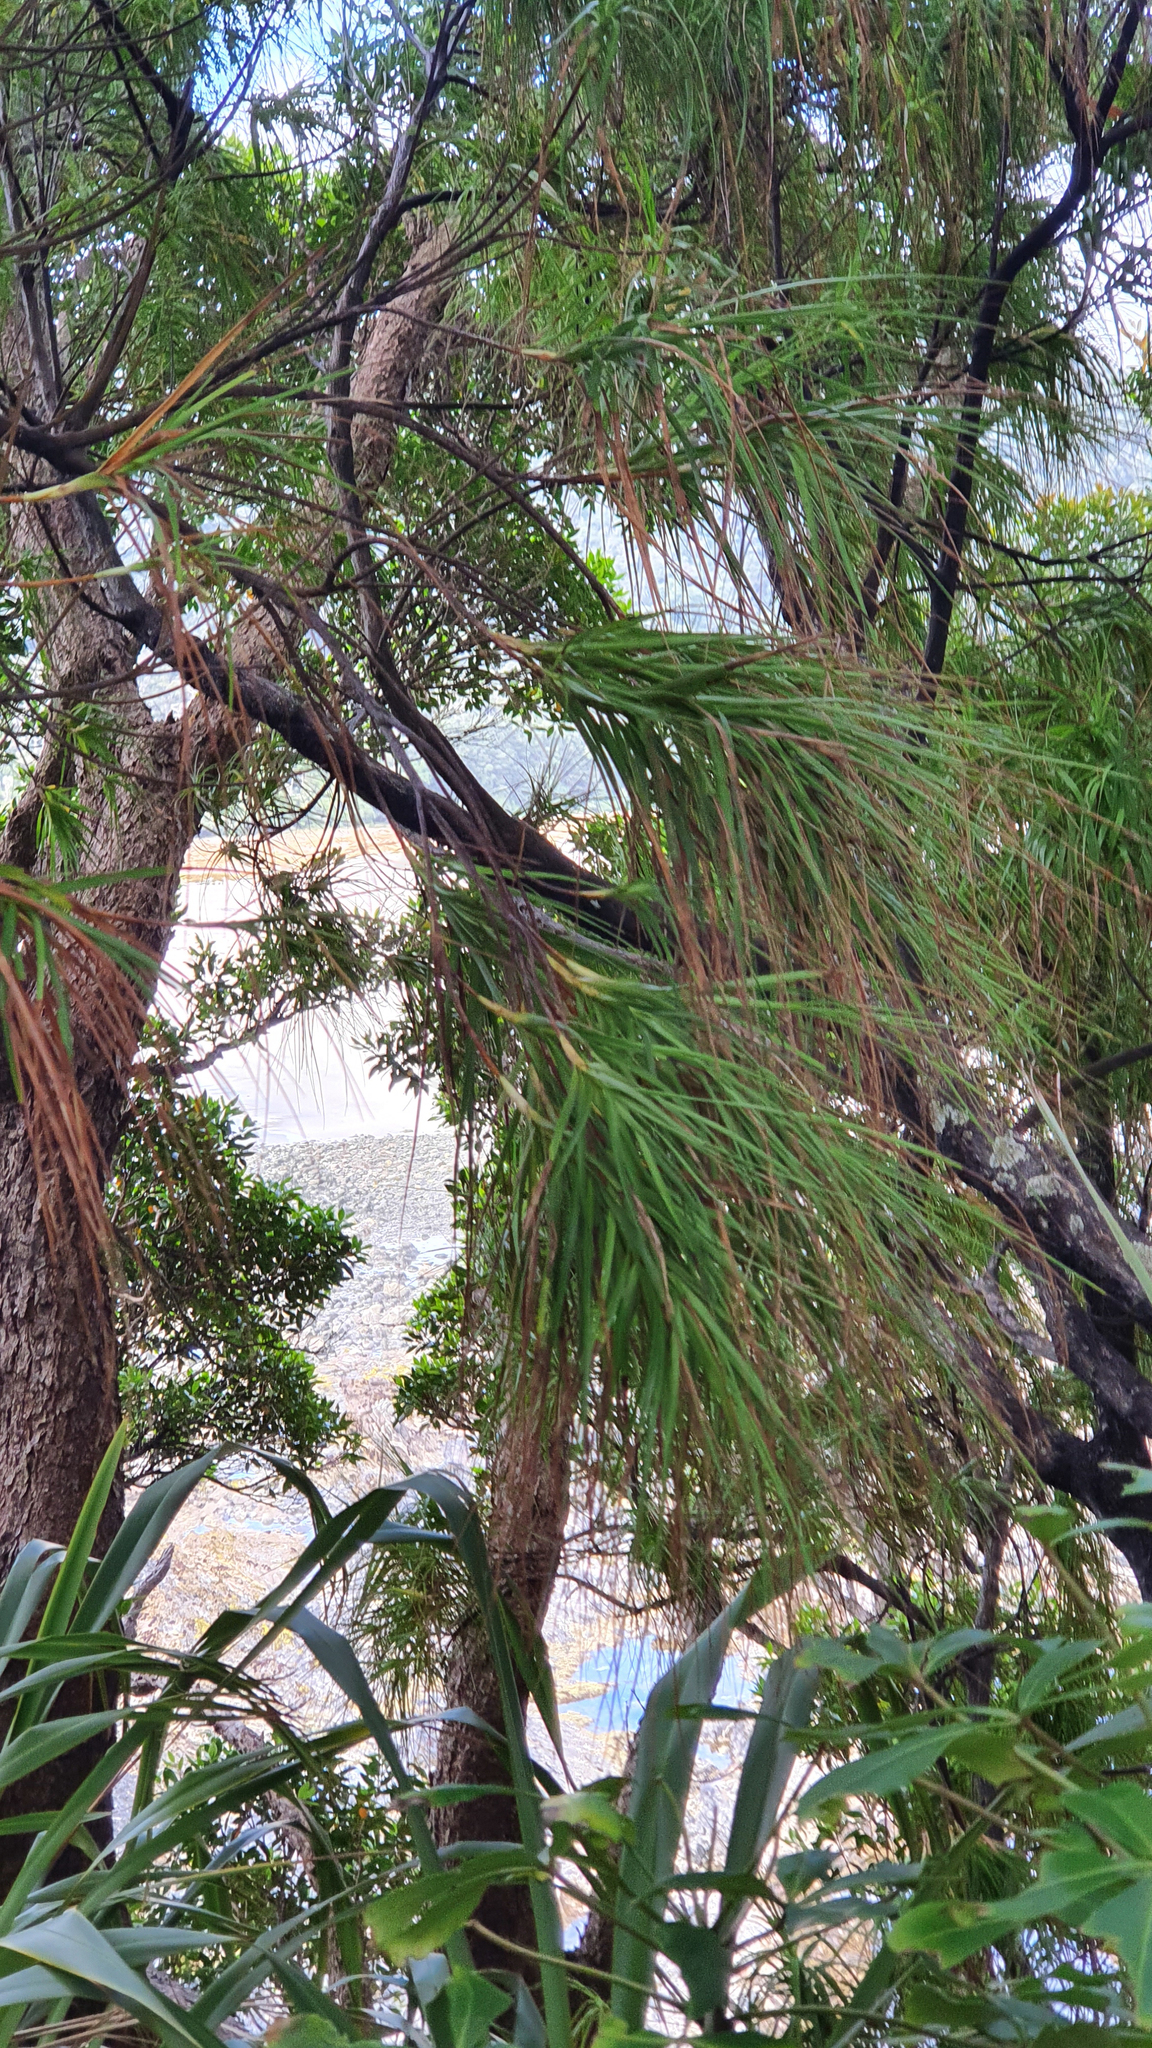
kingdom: Plantae
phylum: Tracheophyta
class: Magnoliopsida
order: Ericales
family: Ericaceae
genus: Dracophyllum
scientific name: Dracophyllum longifolium
